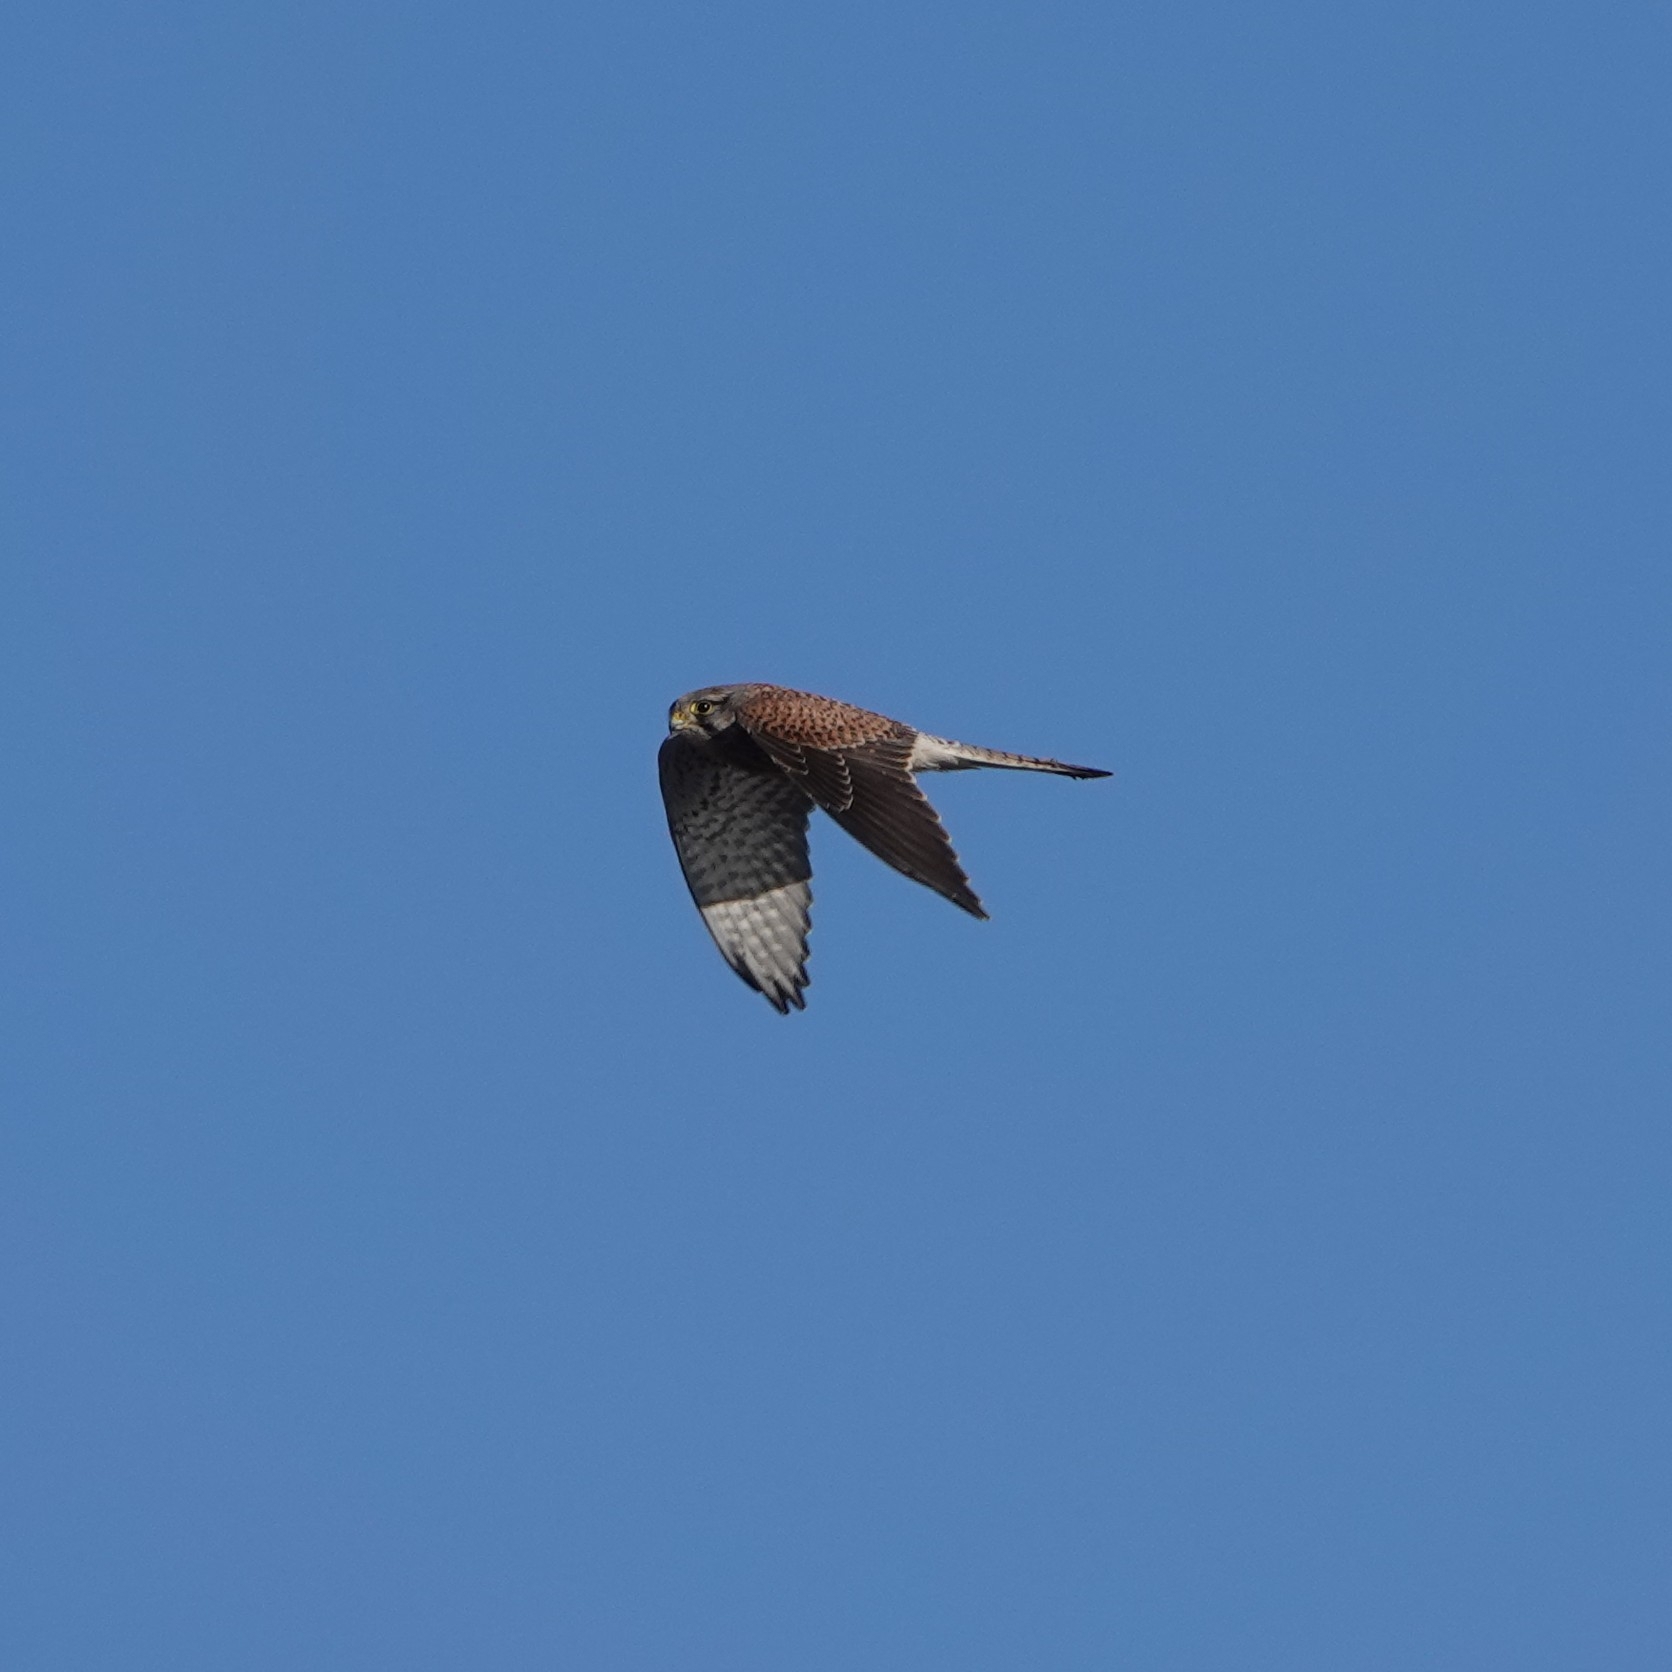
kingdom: Animalia
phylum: Chordata
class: Aves
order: Falconiformes
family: Falconidae
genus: Falco
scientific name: Falco tinnunculus
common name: Common kestrel
